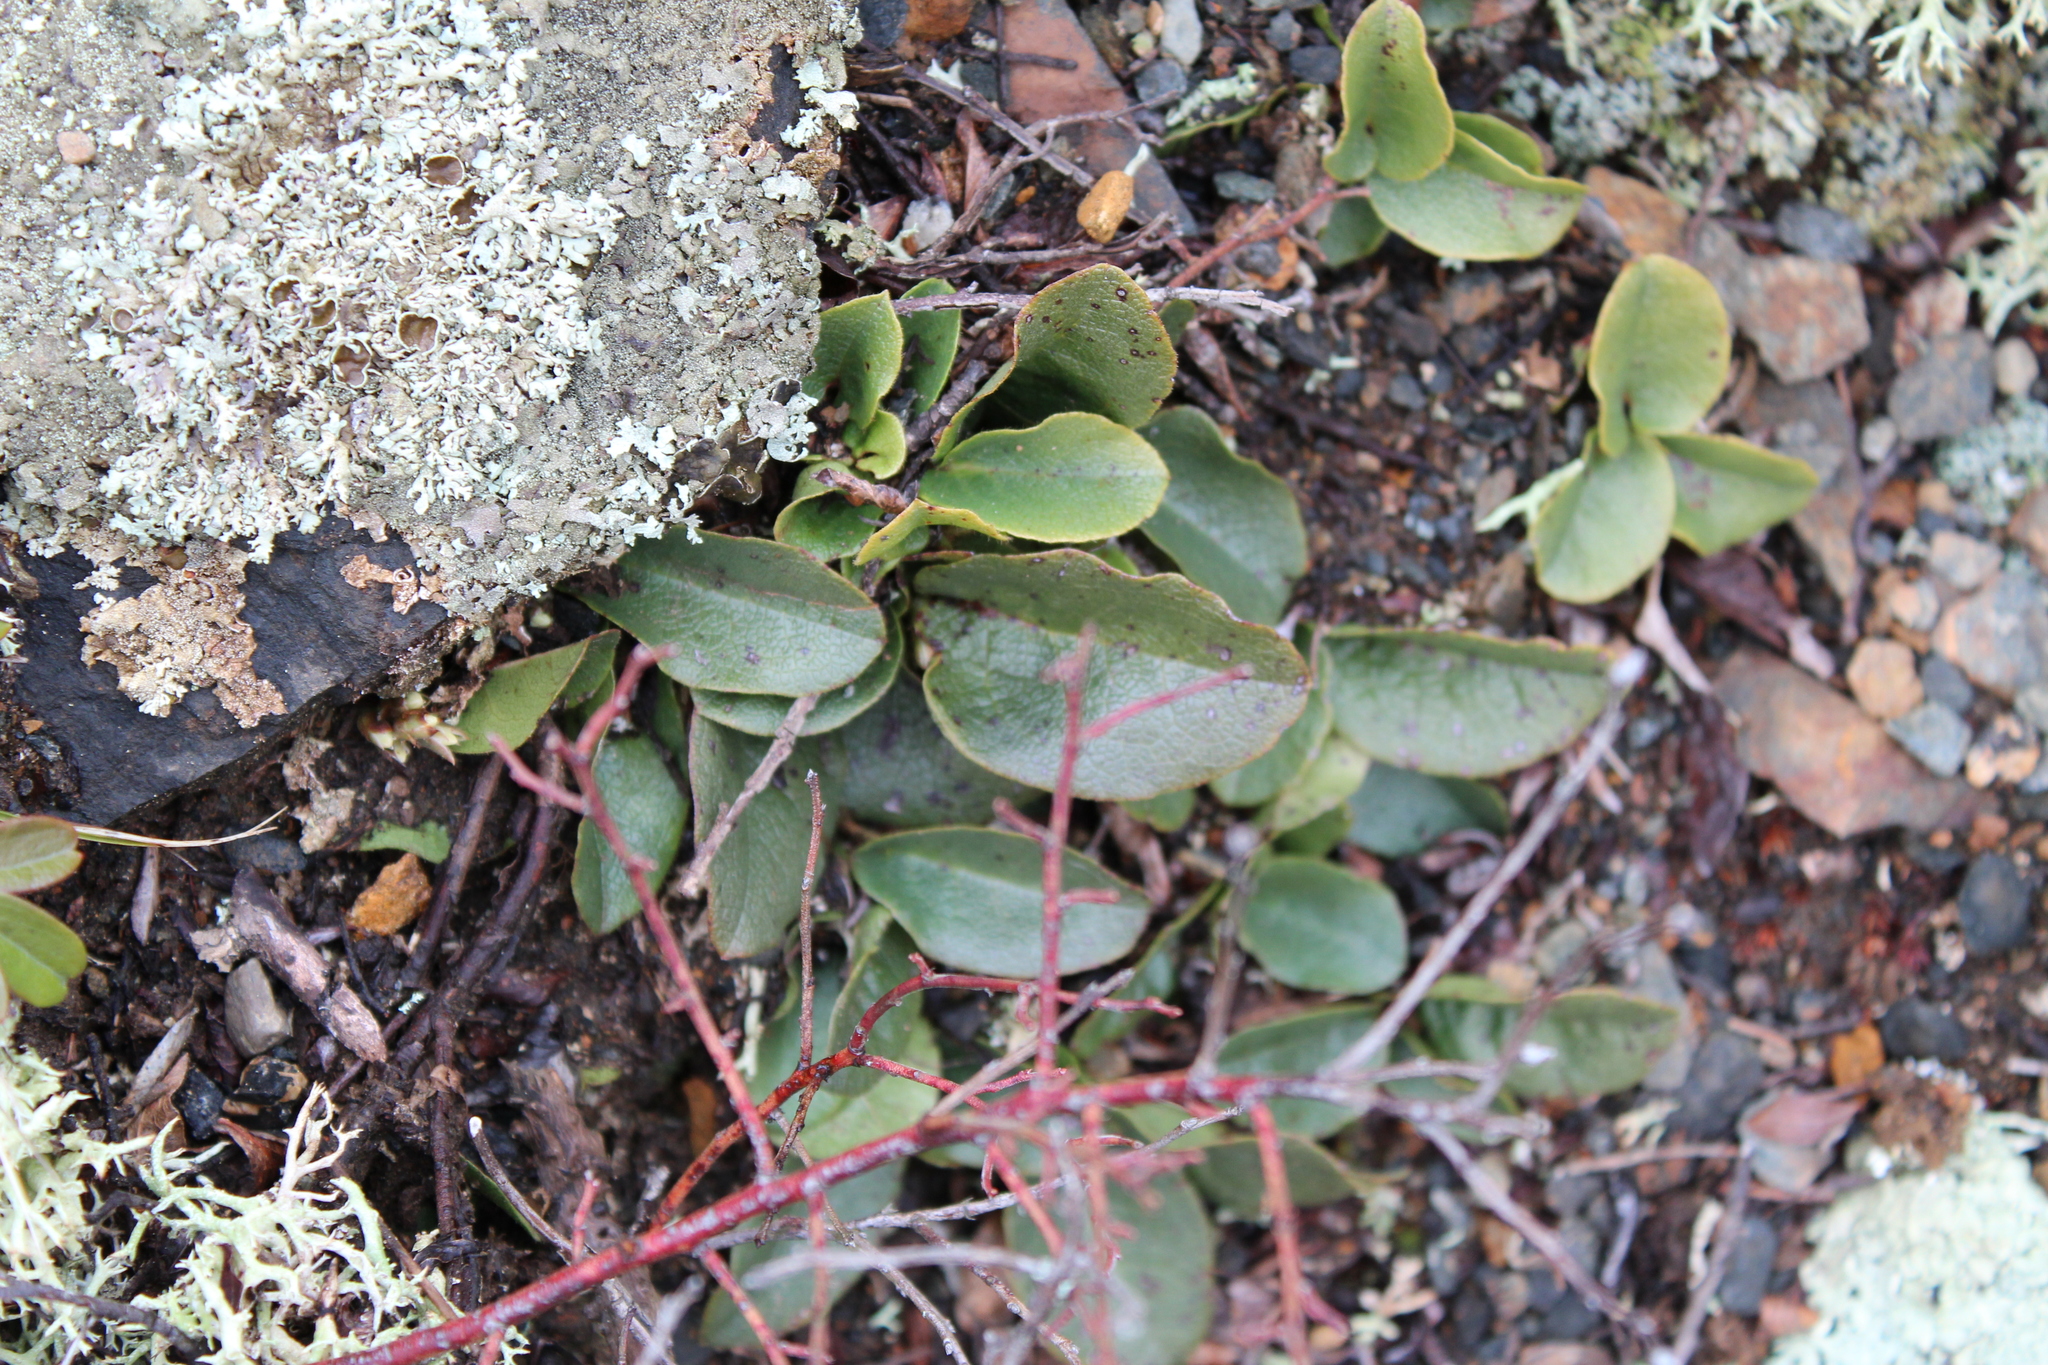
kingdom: Plantae
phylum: Tracheophyta
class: Magnoliopsida
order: Ericales
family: Ericaceae
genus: Epigaea
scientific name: Epigaea repens
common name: Gravelroot
